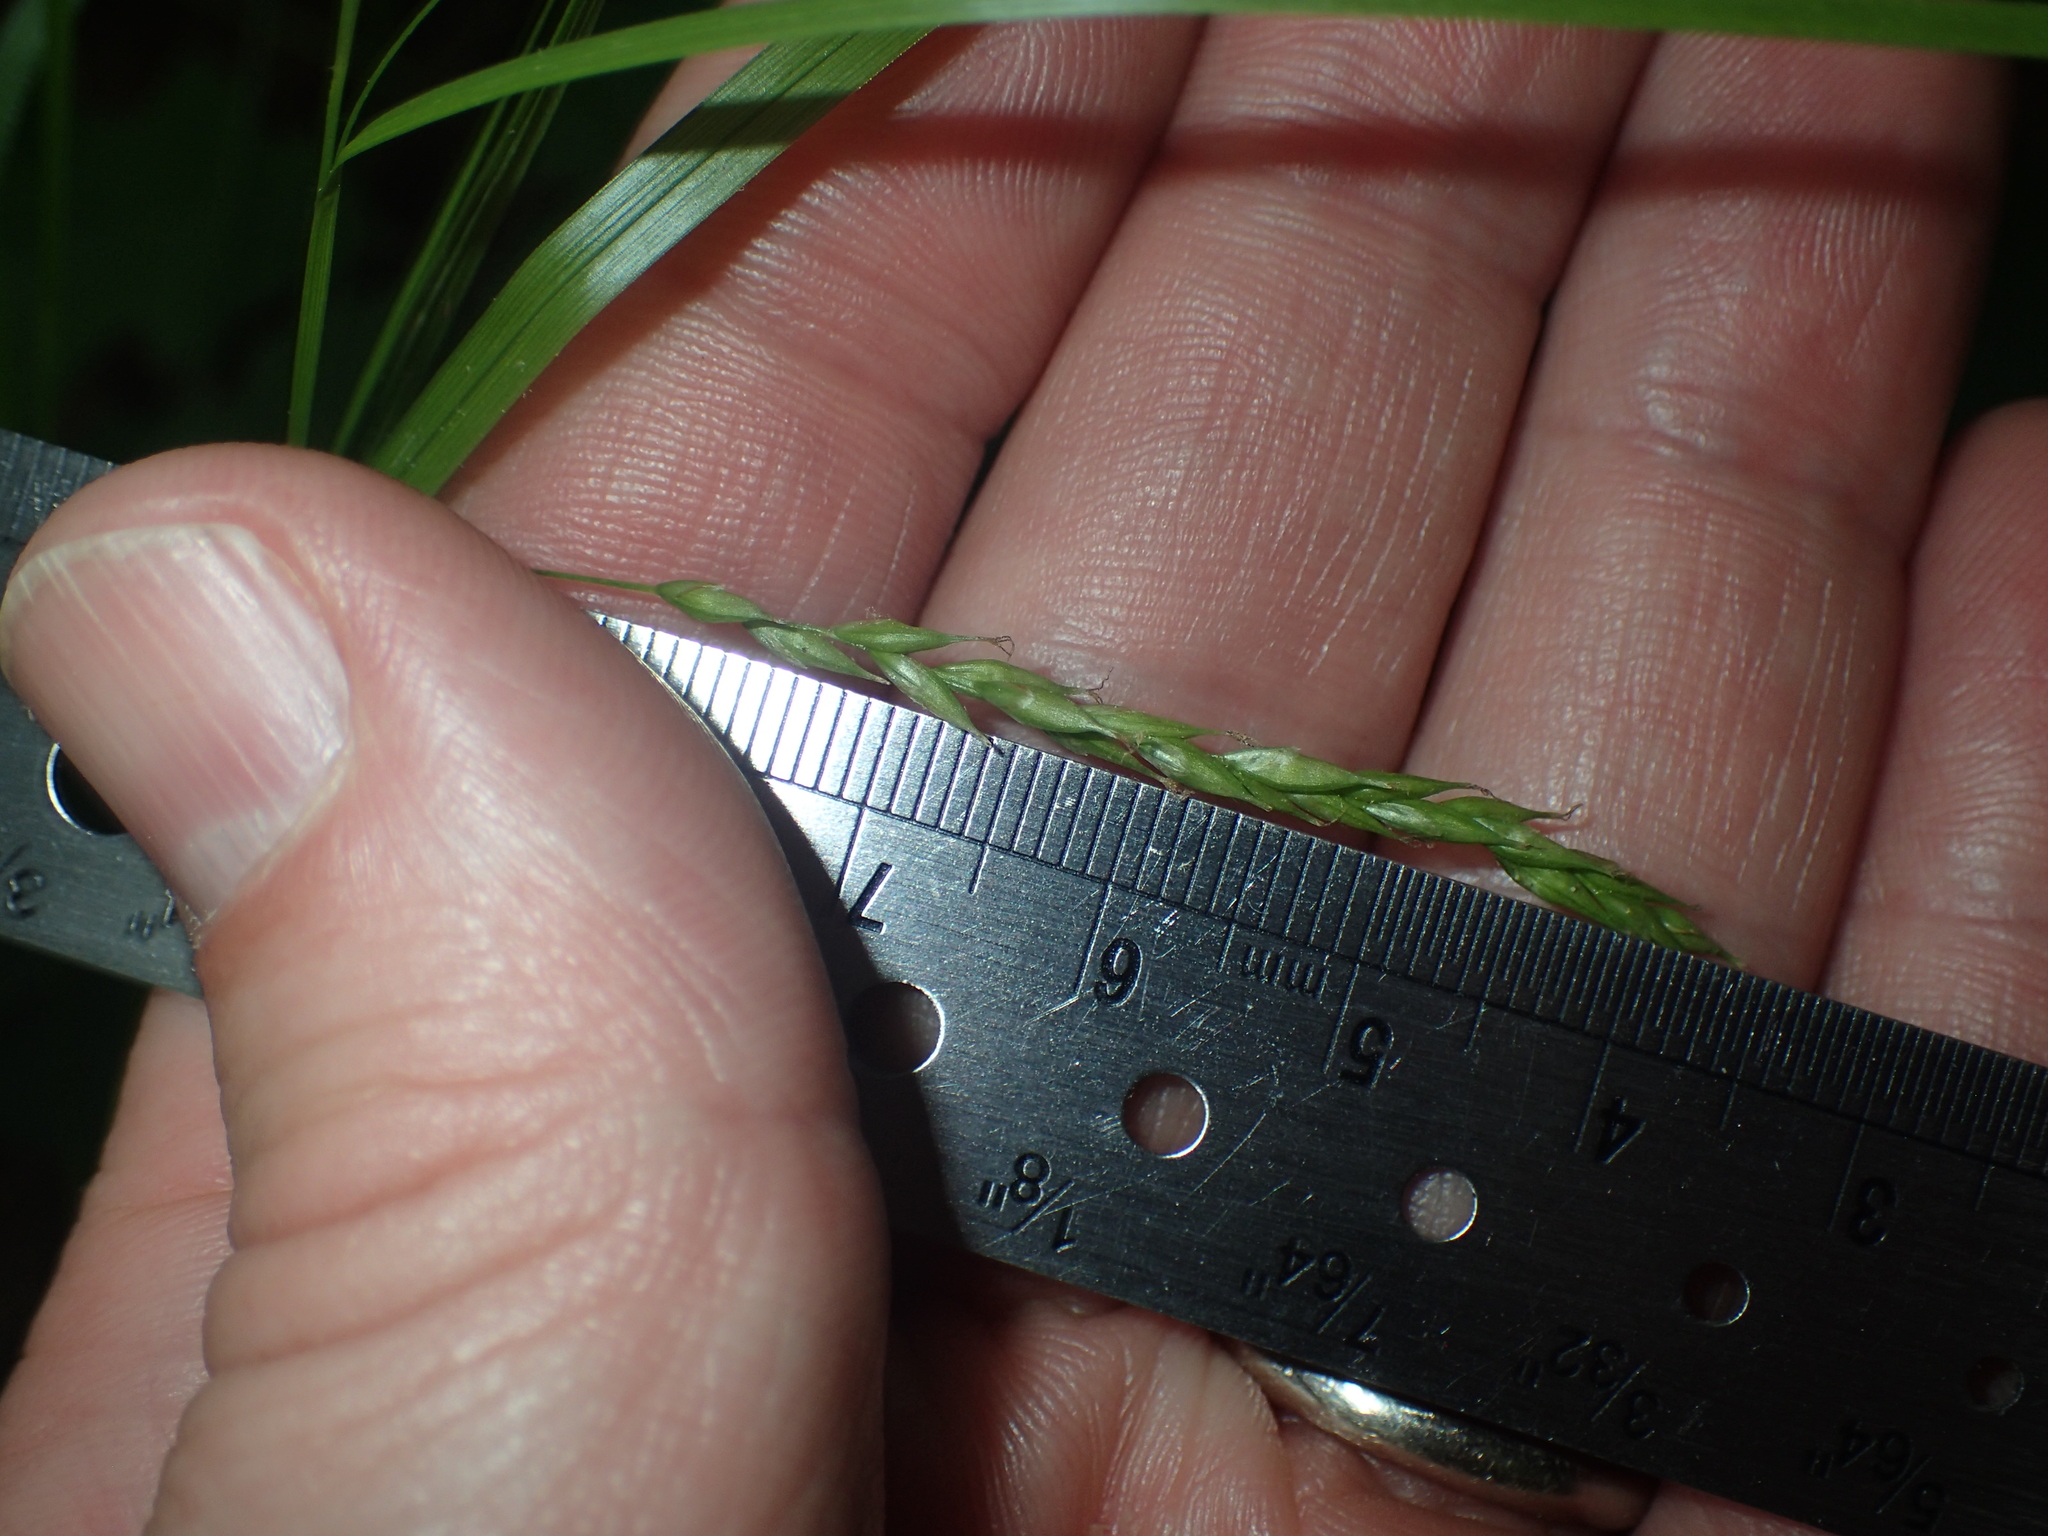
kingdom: Plantae
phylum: Tracheophyta
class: Liliopsida
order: Poales
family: Cyperaceae
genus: Carex
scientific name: Carex debilis
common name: White-edge sedge
